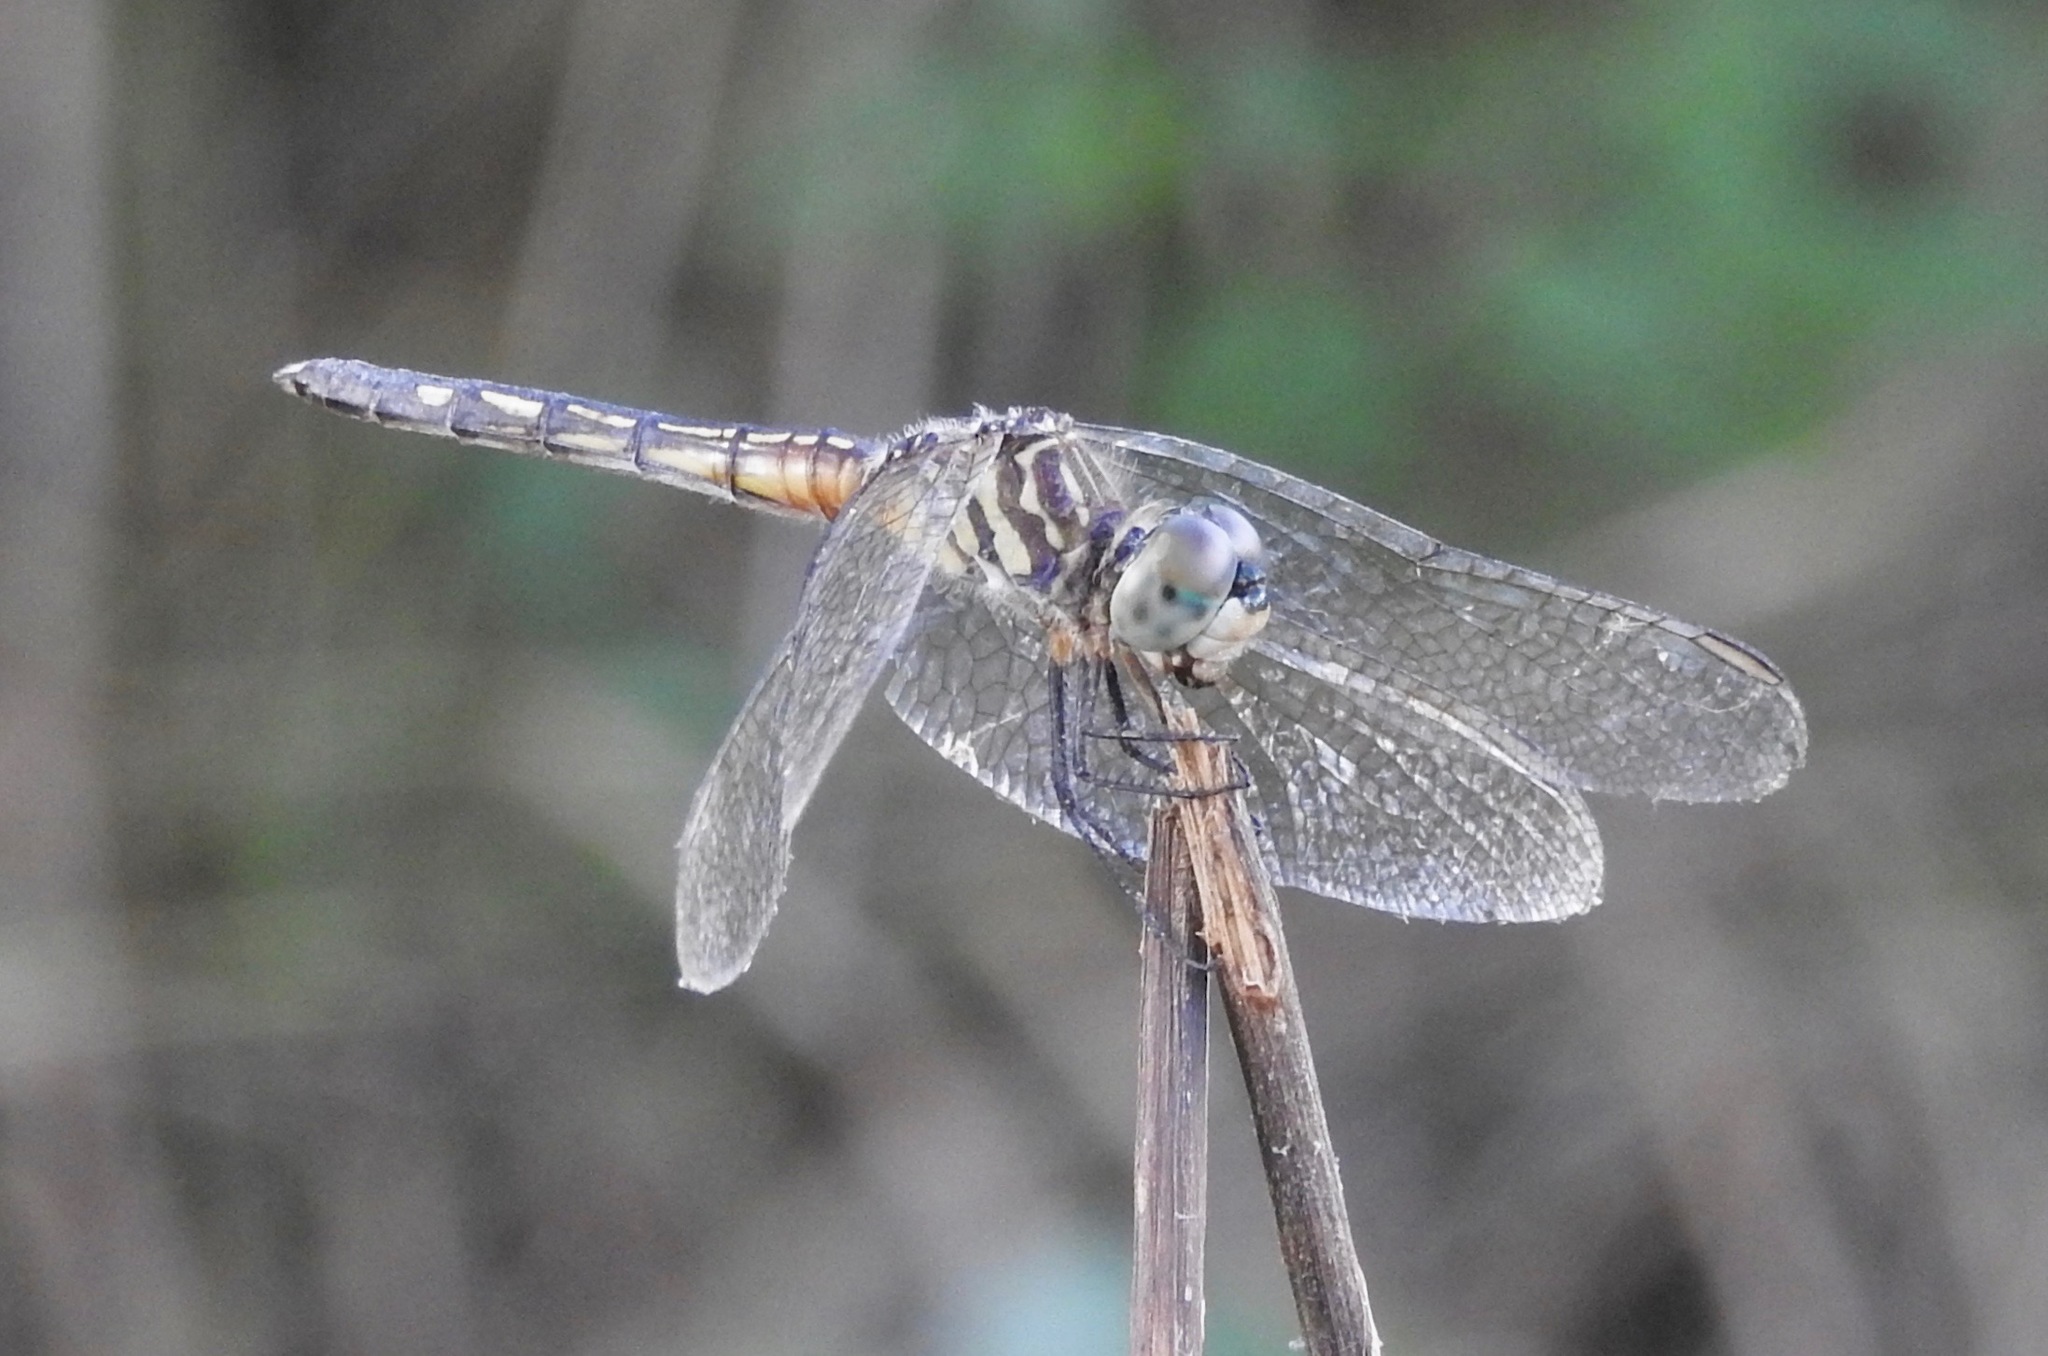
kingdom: Animalia
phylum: Arthropoda
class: Insecta
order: Odonata
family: Libellulidae
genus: Pachydiplax
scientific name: Pachydiplax longipennis
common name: Blue dasher
